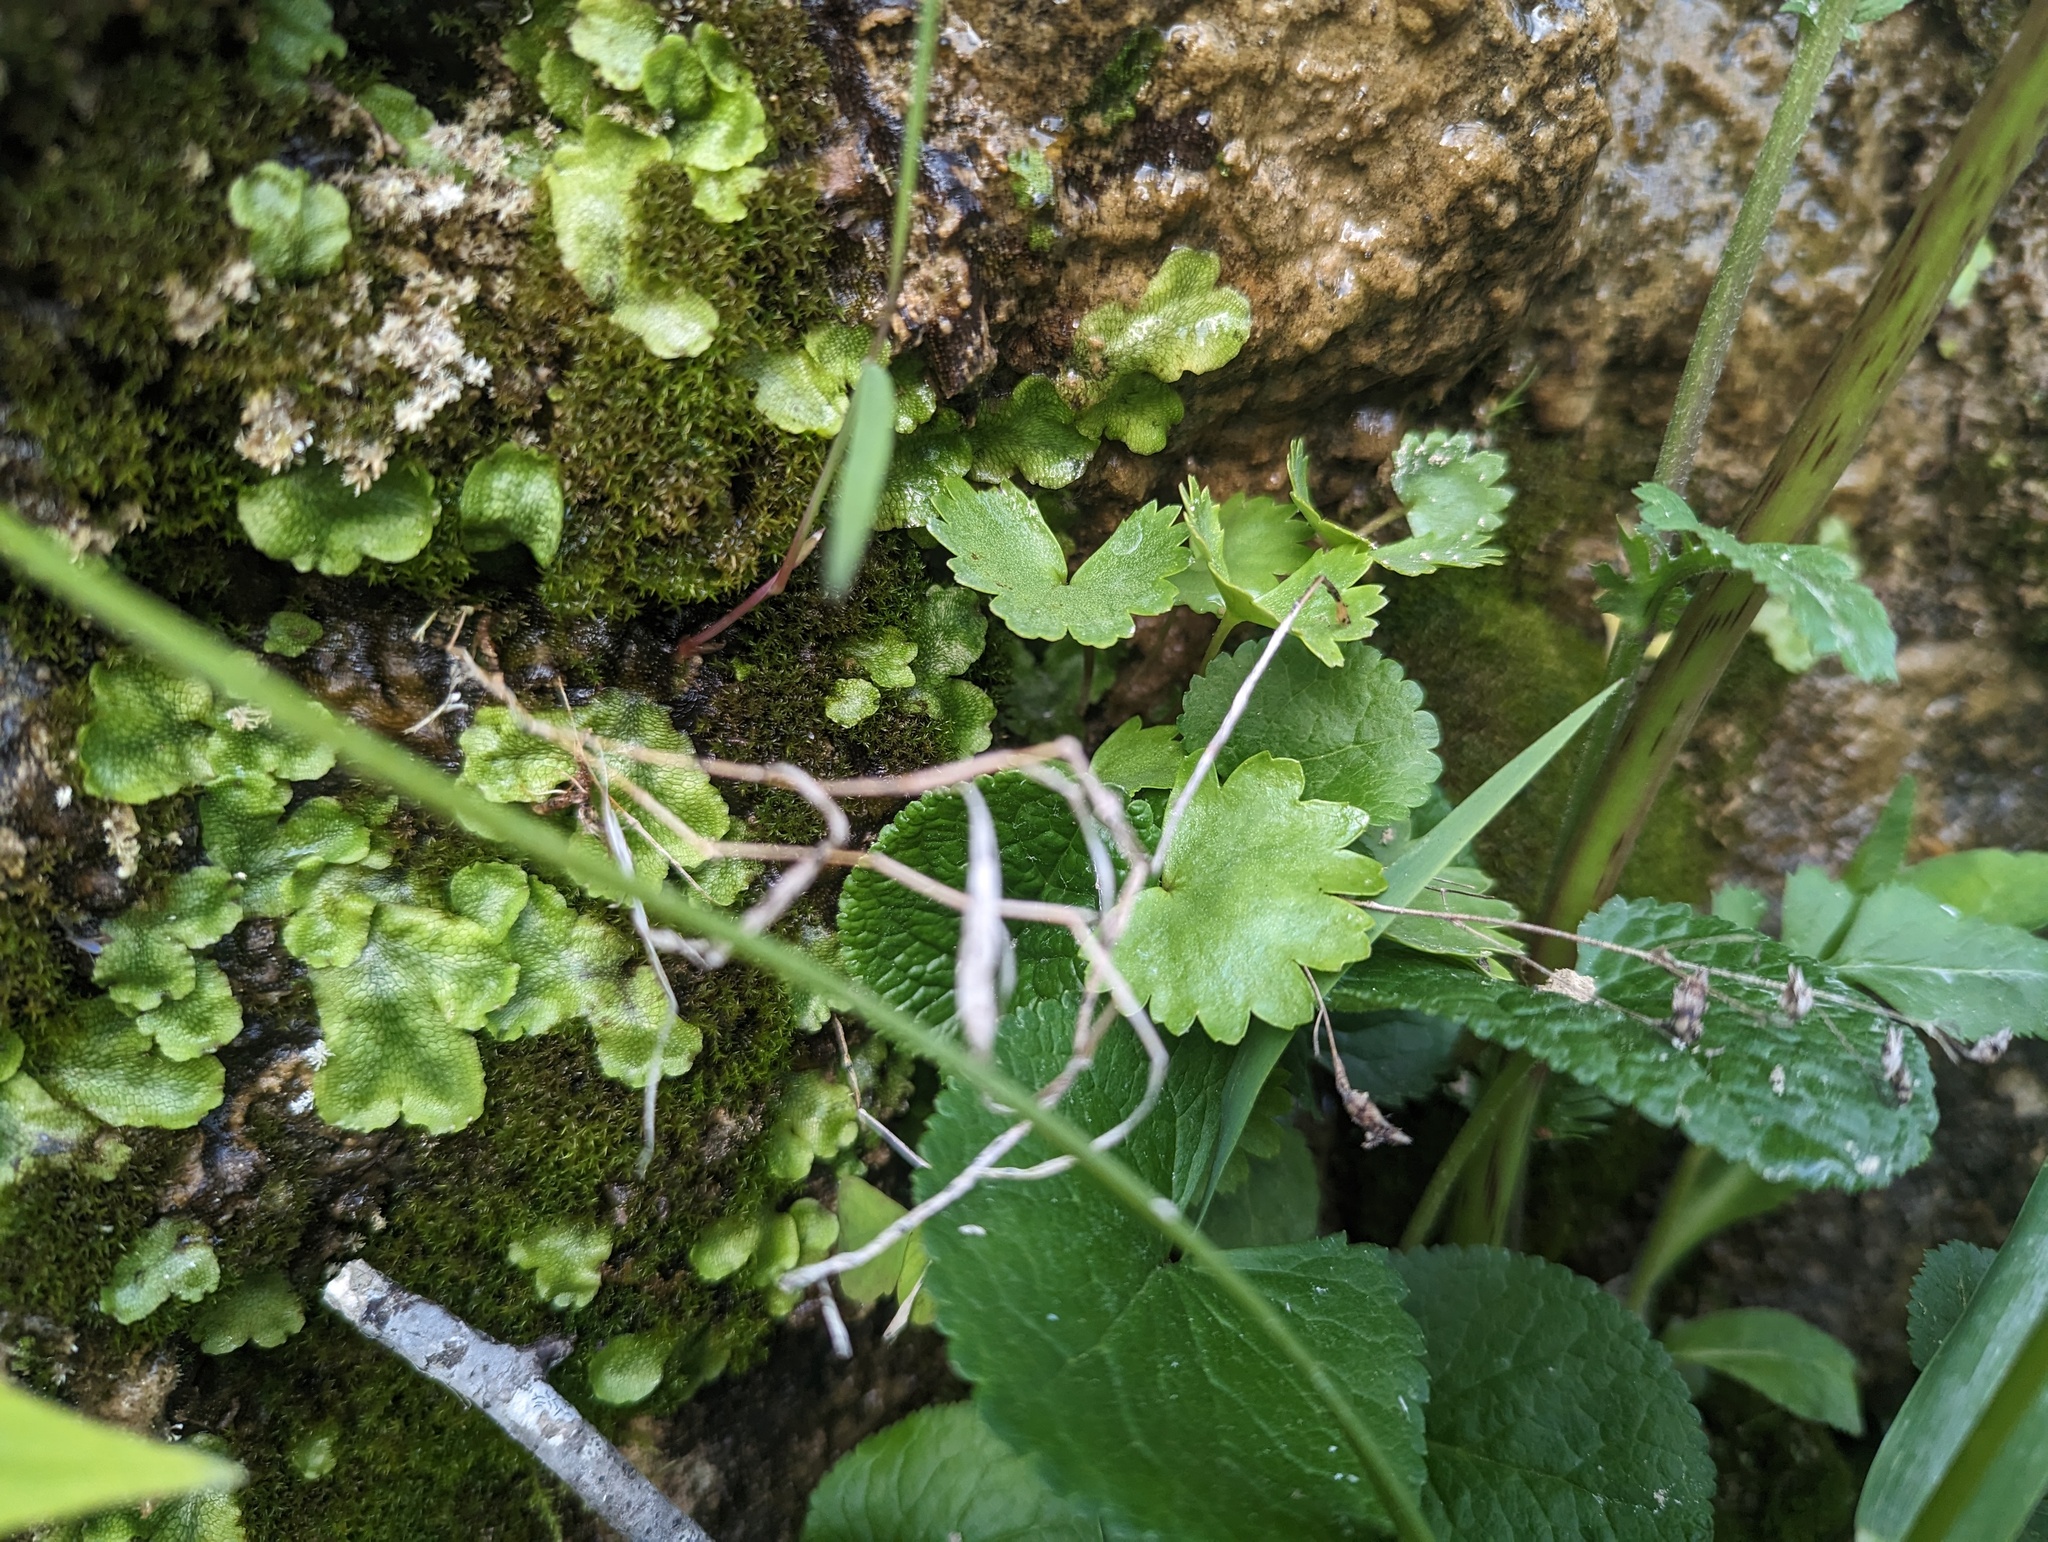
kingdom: Plantae
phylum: Tracheophyta
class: Magnoliopsida
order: Saxifragales
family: Saxifragaceae
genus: Sullivantia
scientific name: Sullivantia sullivantii
